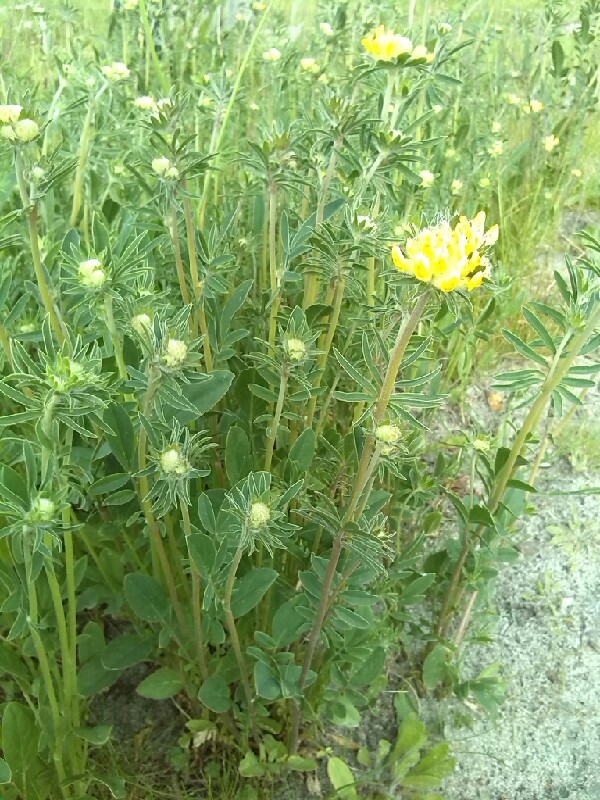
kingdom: Plantae
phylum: Tracheophyta
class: Magnoliopsida
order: Fabales
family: Fabaceae
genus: Anthyllis
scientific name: Anthyllis vulneraria
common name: Kidney vetch
